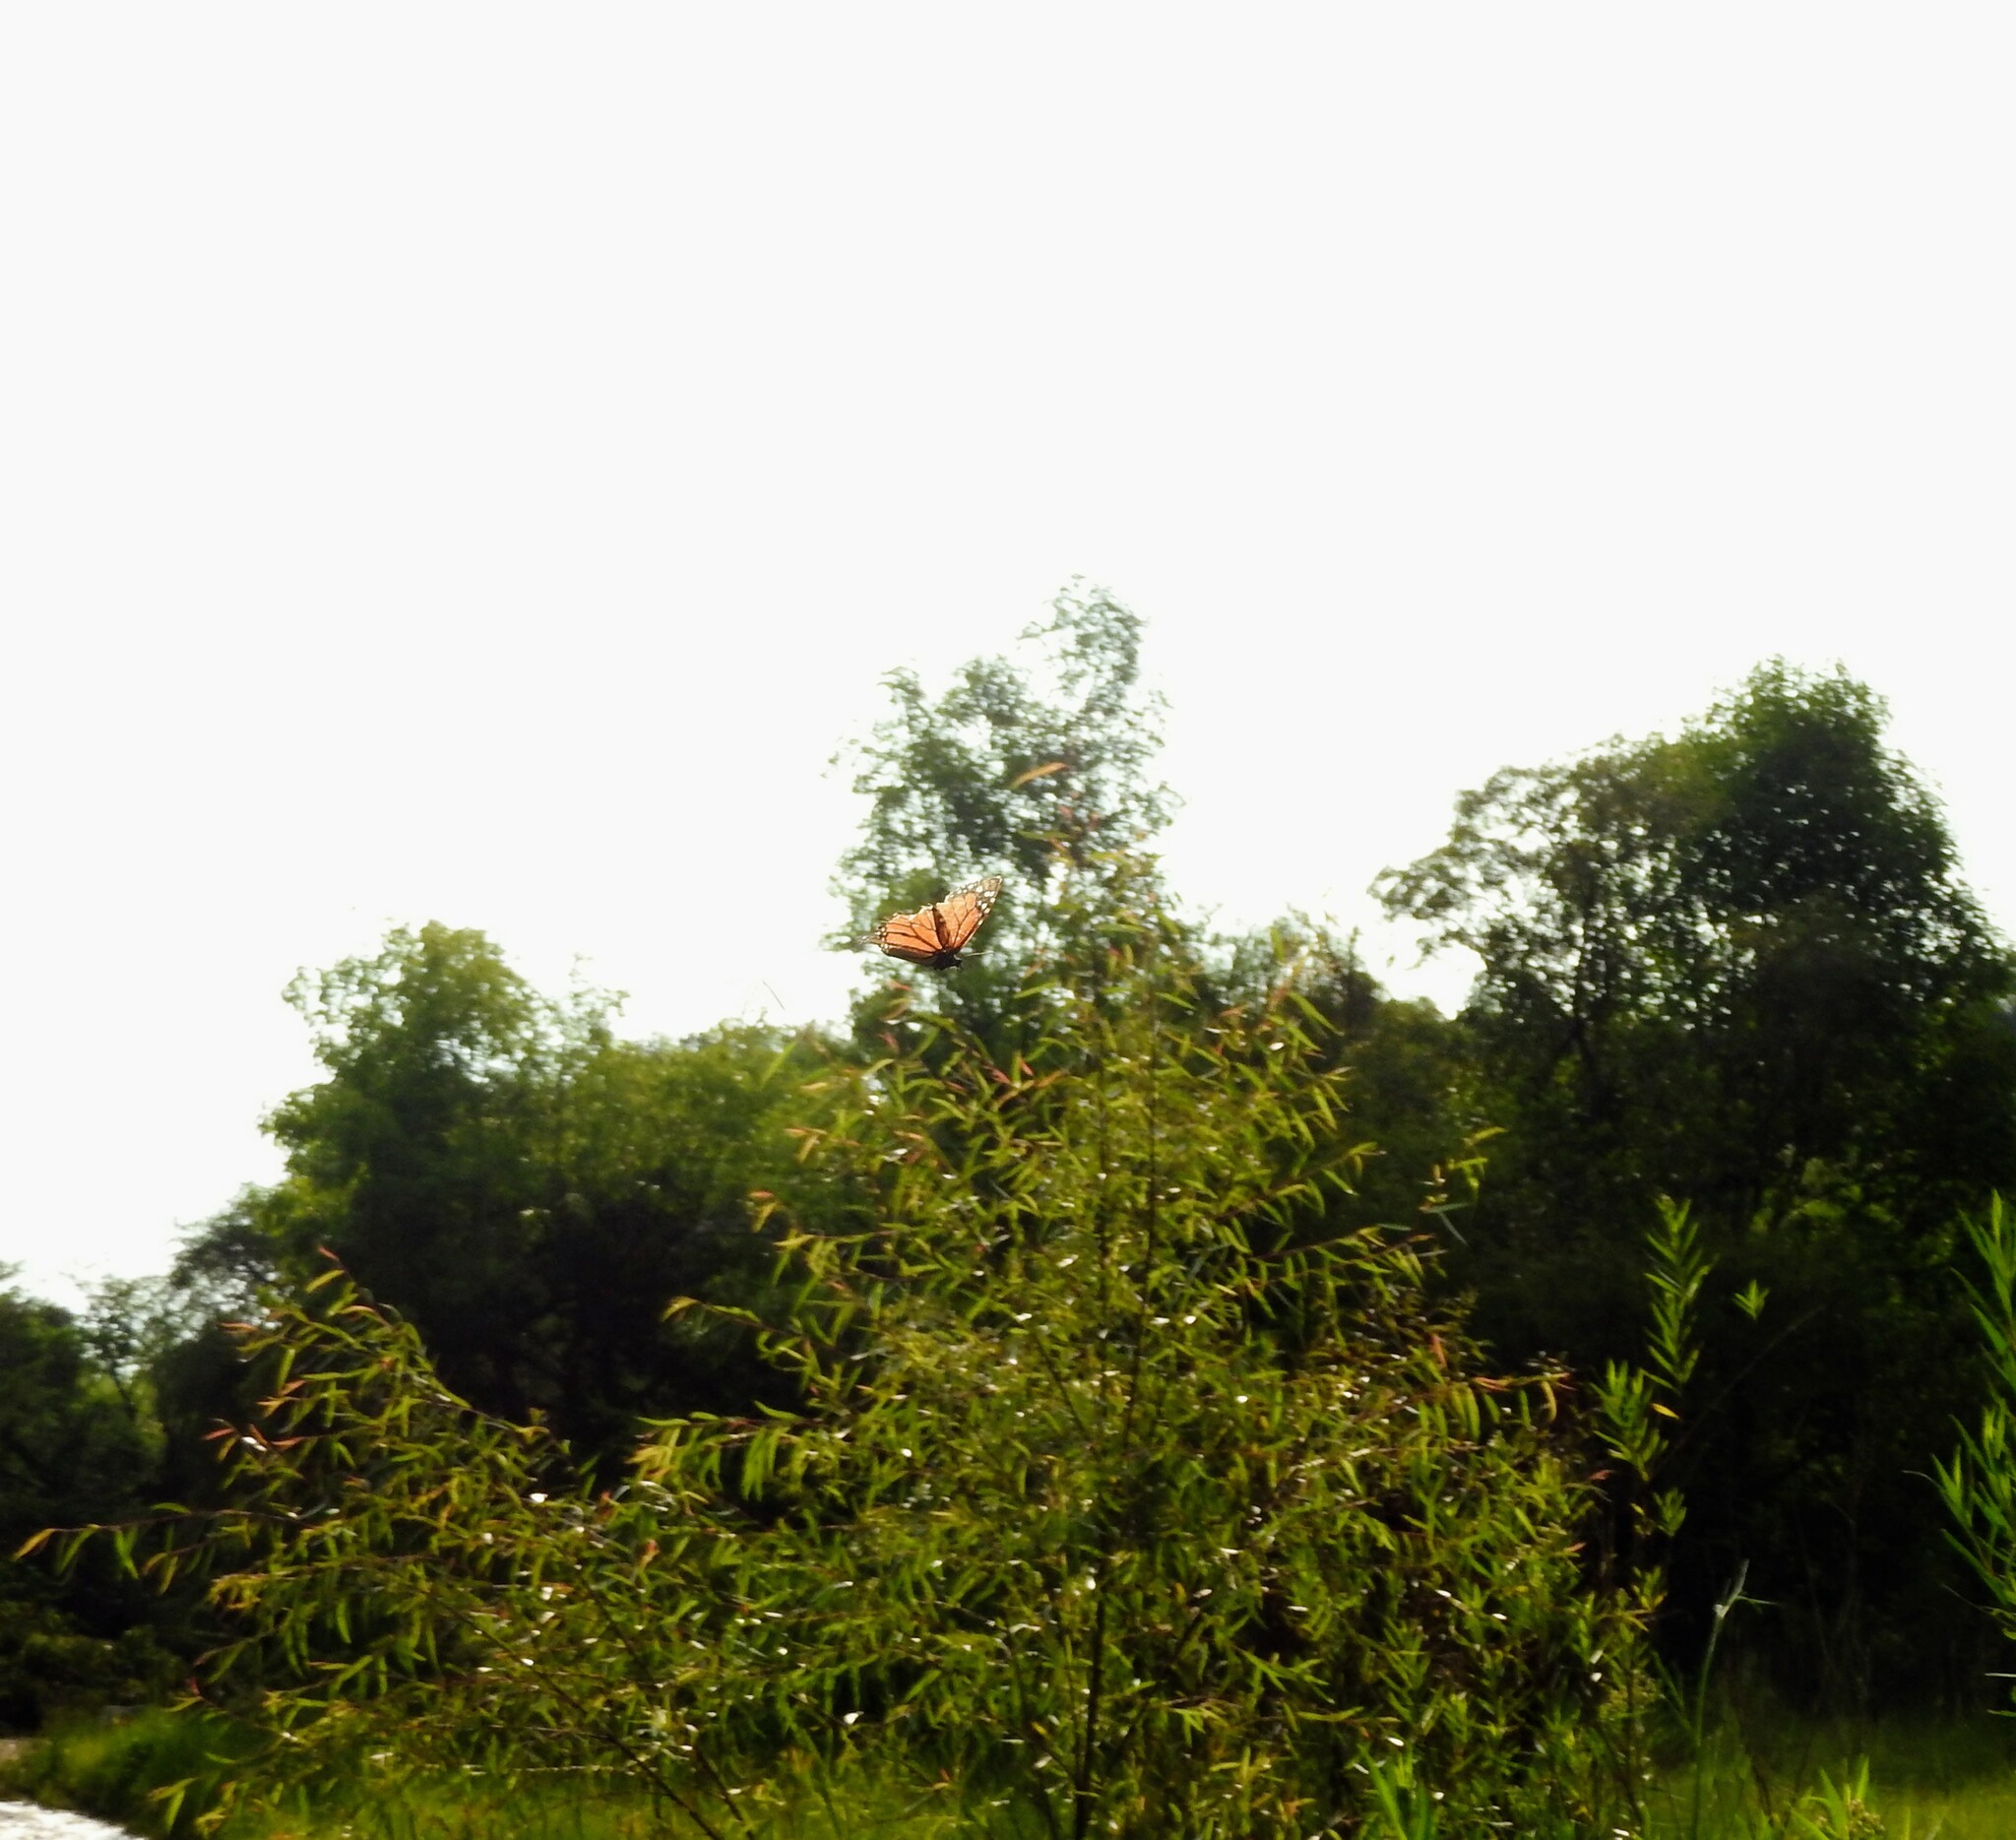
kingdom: Animalia
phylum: Arthropoda
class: Insecta
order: Lepidoptera
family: Nymphalidae
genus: Danaus
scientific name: Danaus plexippus
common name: Monarch
